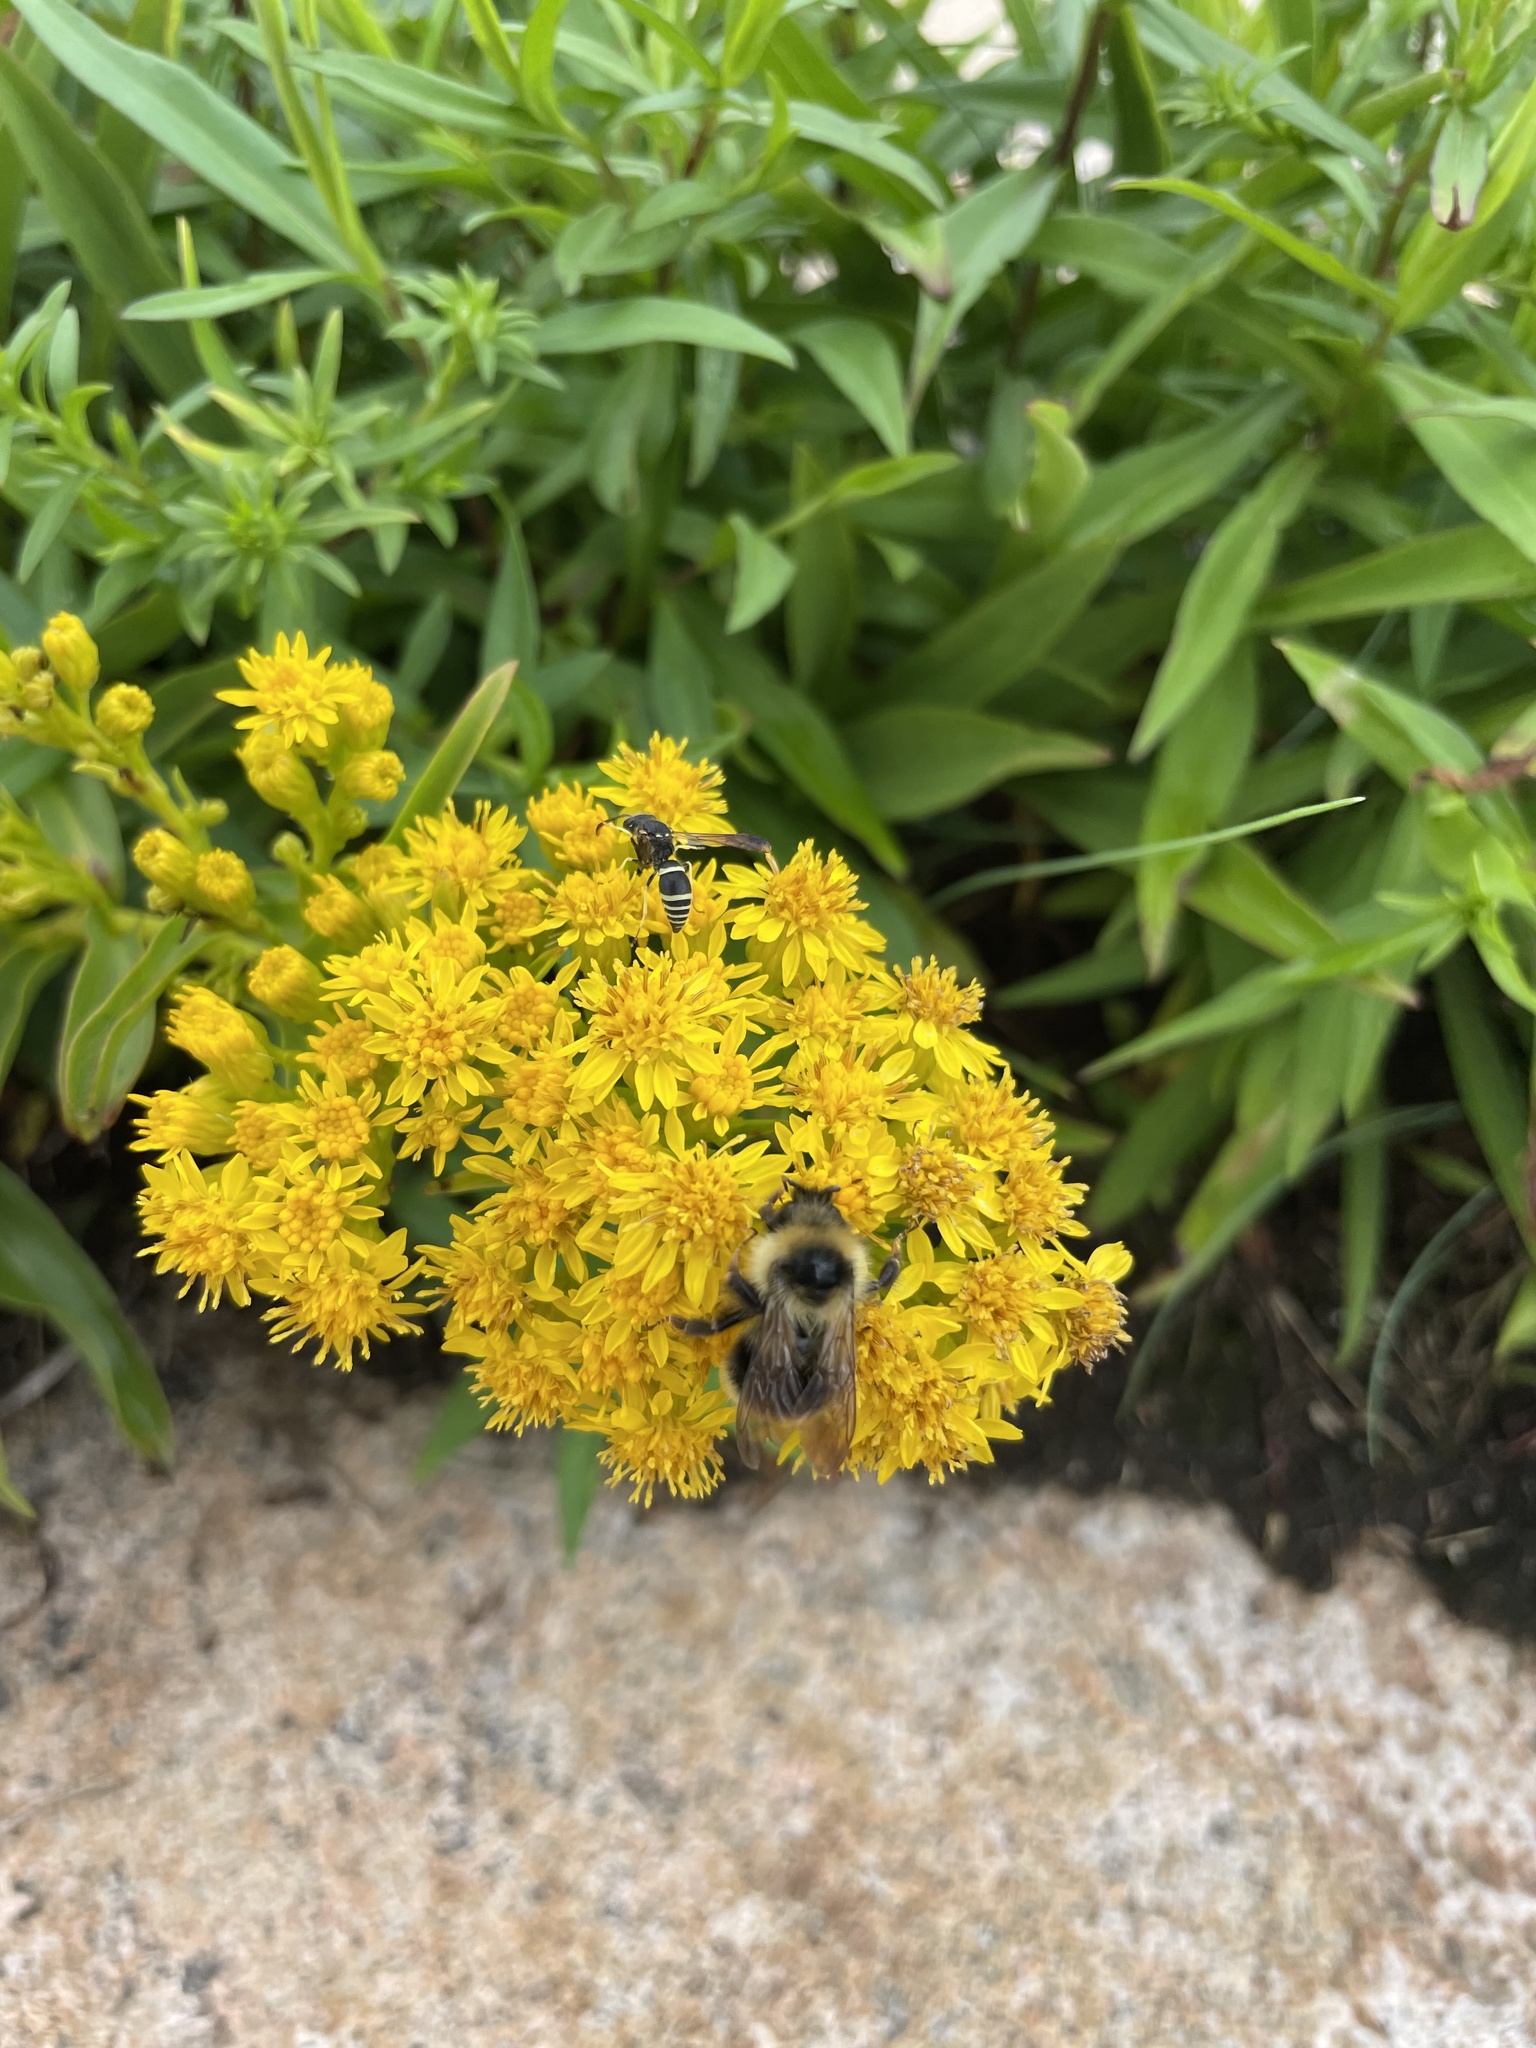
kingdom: Animalia
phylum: Arthropoda
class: Insecta
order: Hymenoptera
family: Apidae
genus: Bombus
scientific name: Bombus flavidus
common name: Fernald cuckoo bumble bee
